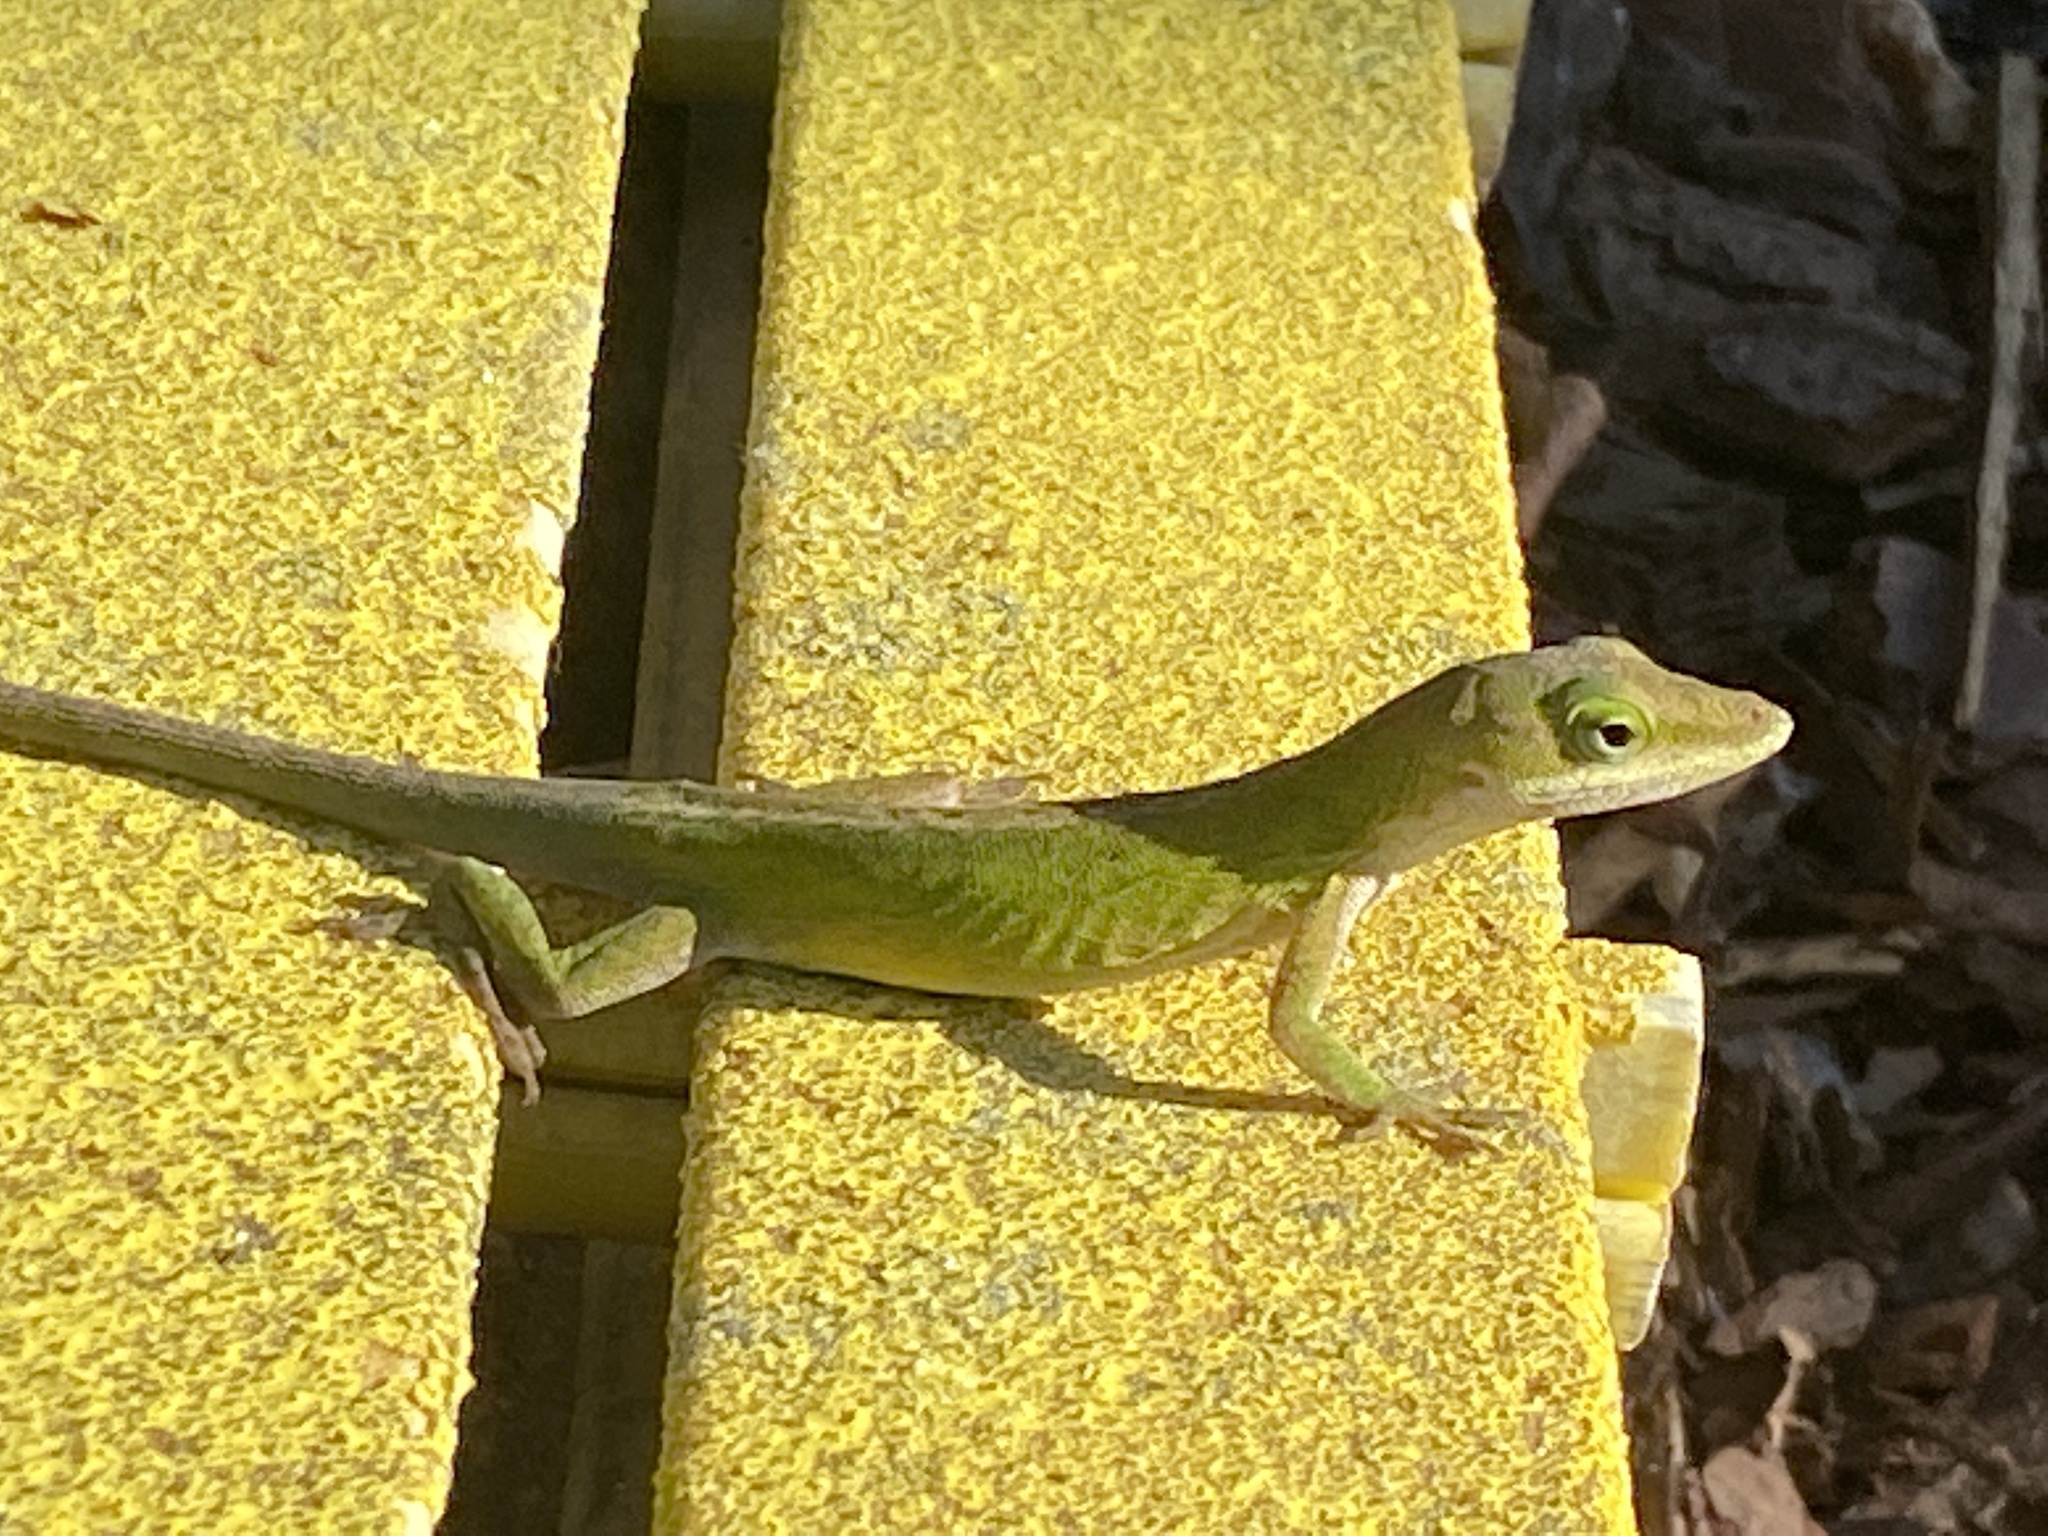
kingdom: Animalia
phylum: Chordata
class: Squamata
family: Dactyloidae
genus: Anolis
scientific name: Anolis carolinensis
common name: Green anole
